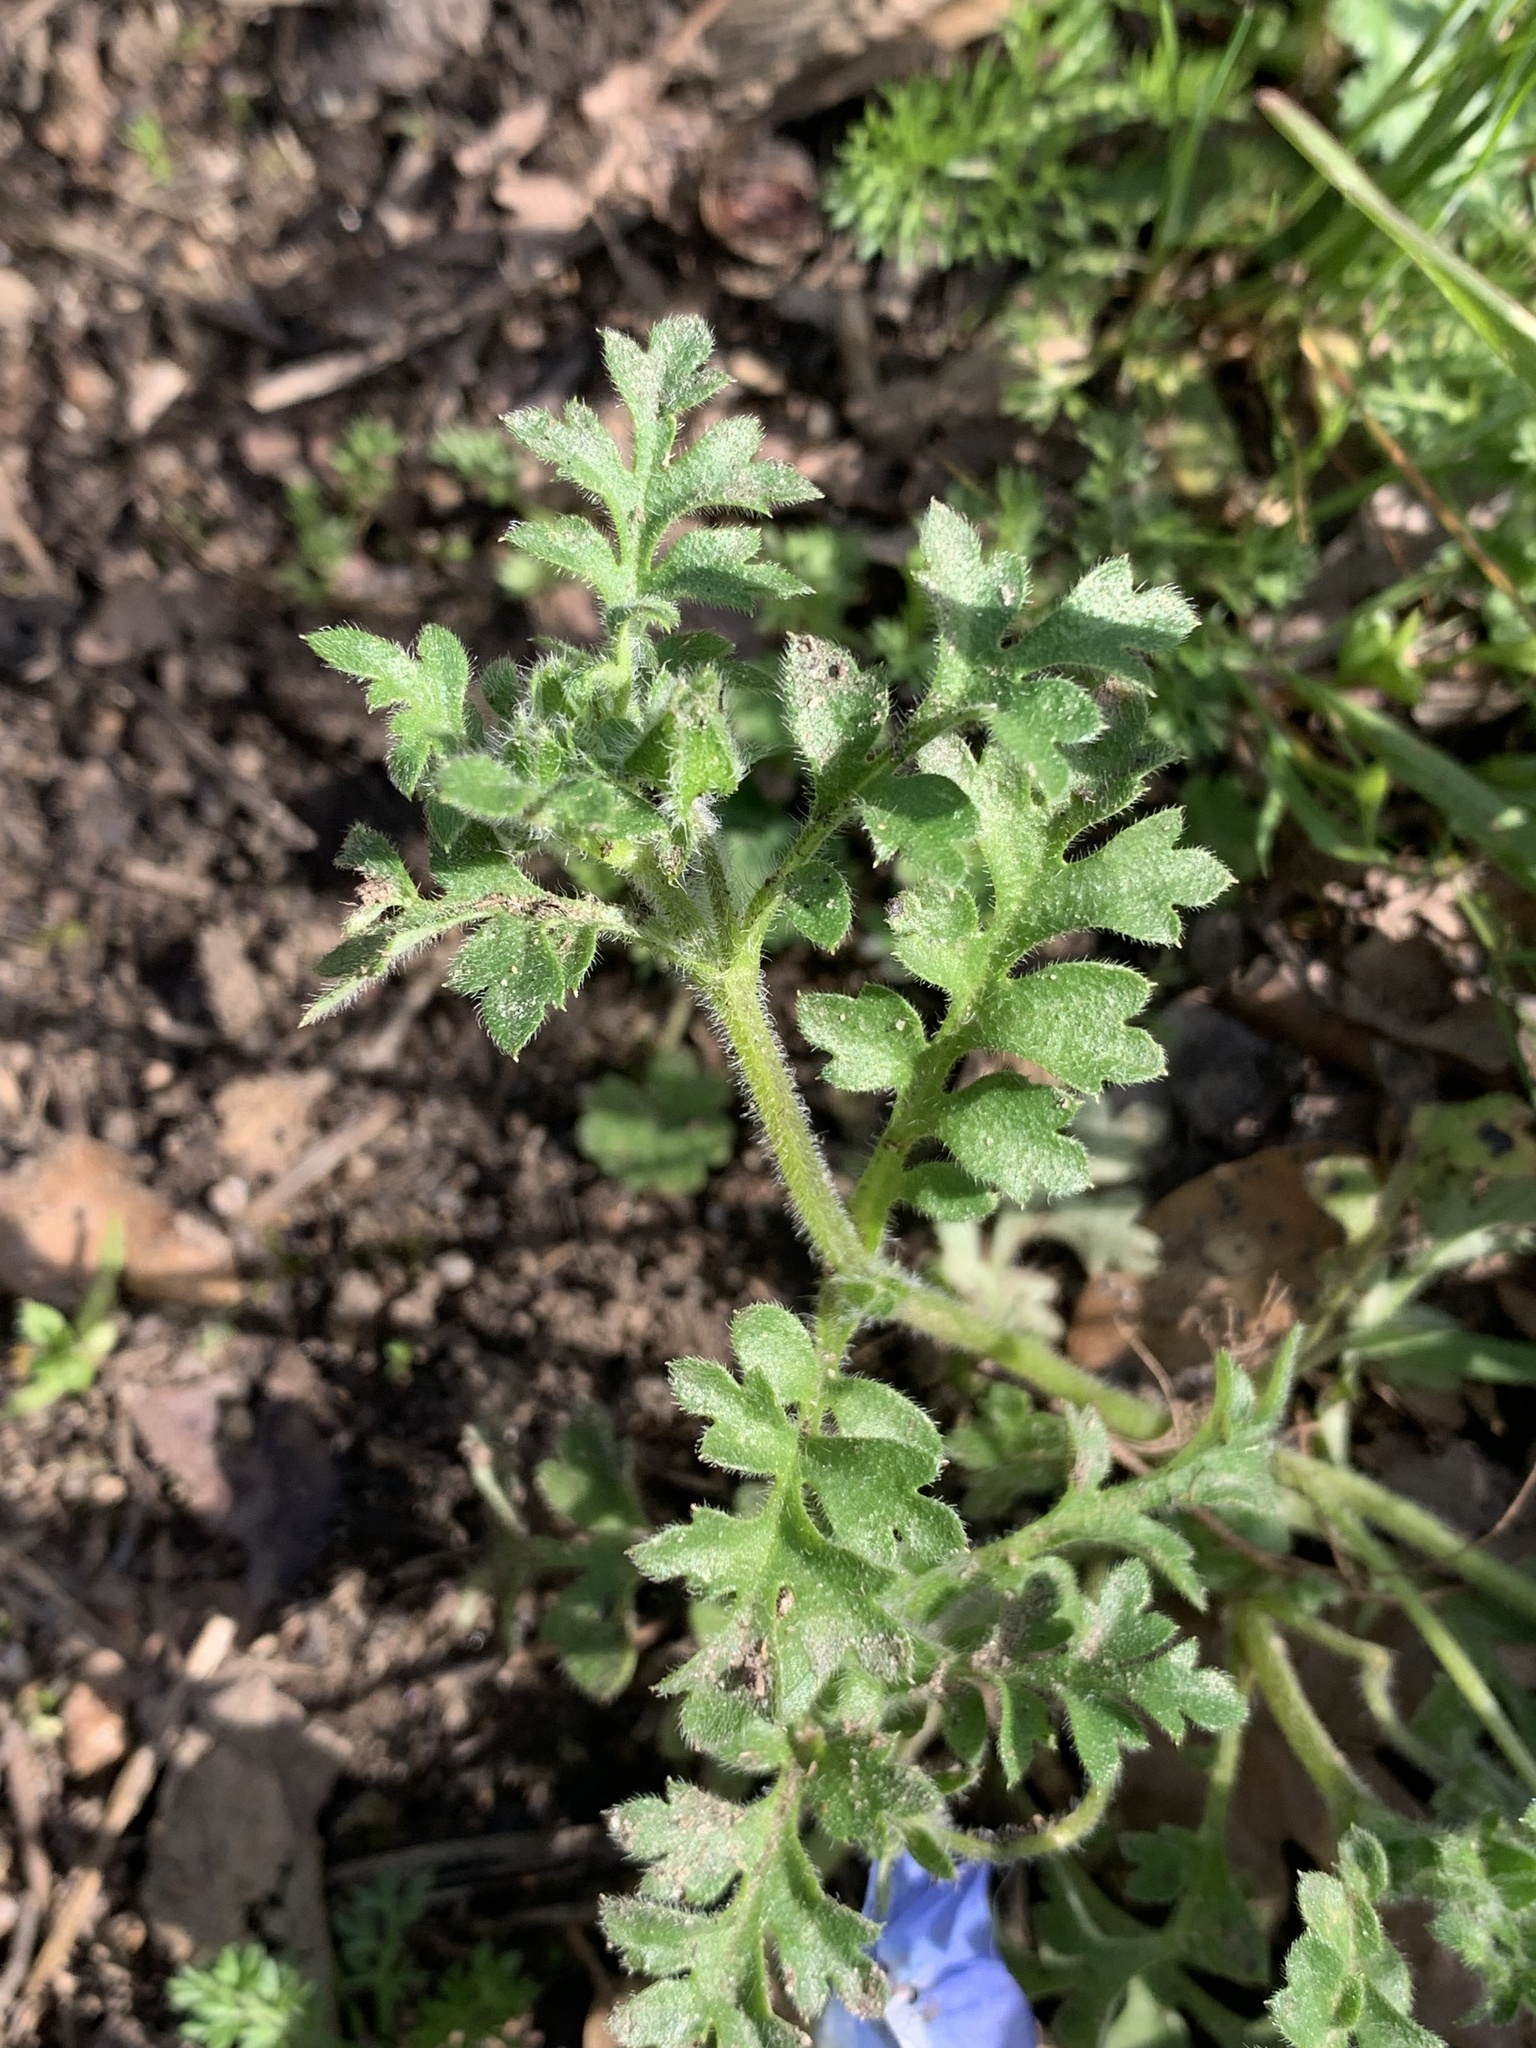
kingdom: Plantae
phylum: Tracheophyta
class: Magnoliopsida
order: Boraginales
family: Hydrophyllaceae
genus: Nemophila
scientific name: Nemophila menziesii
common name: Baby's-blue-eyes
